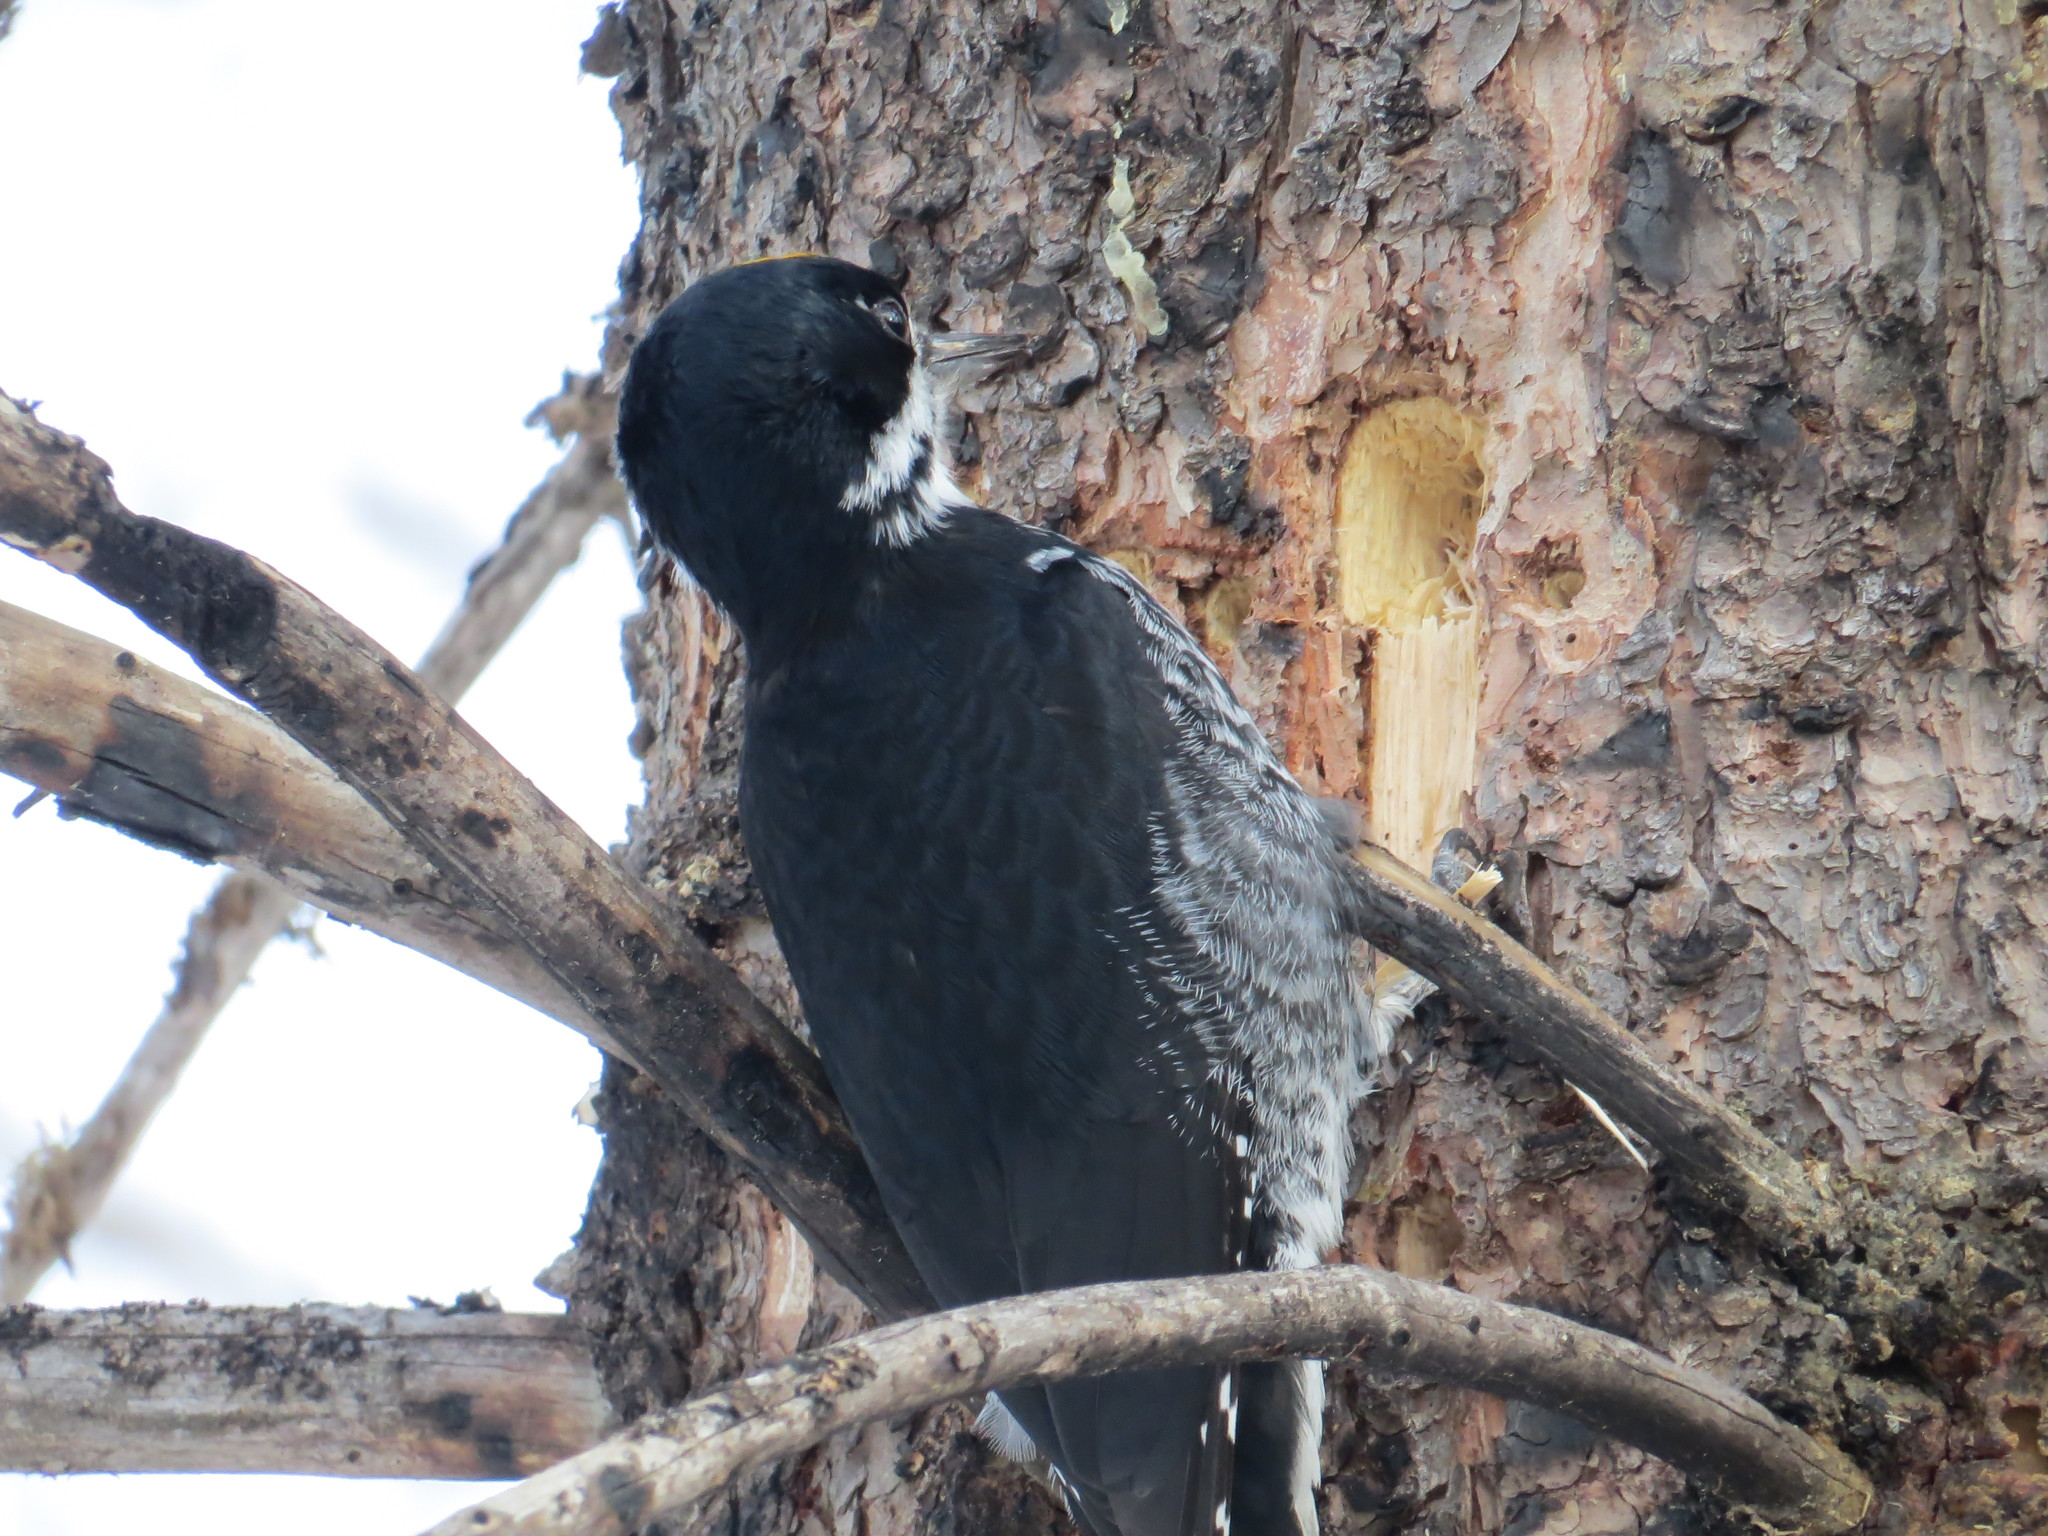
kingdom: Animalia
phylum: Chordata
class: Aves
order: Piciformes
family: Picidae
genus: Picoides
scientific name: Picoides arcticus
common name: Black-backed woodpecker
